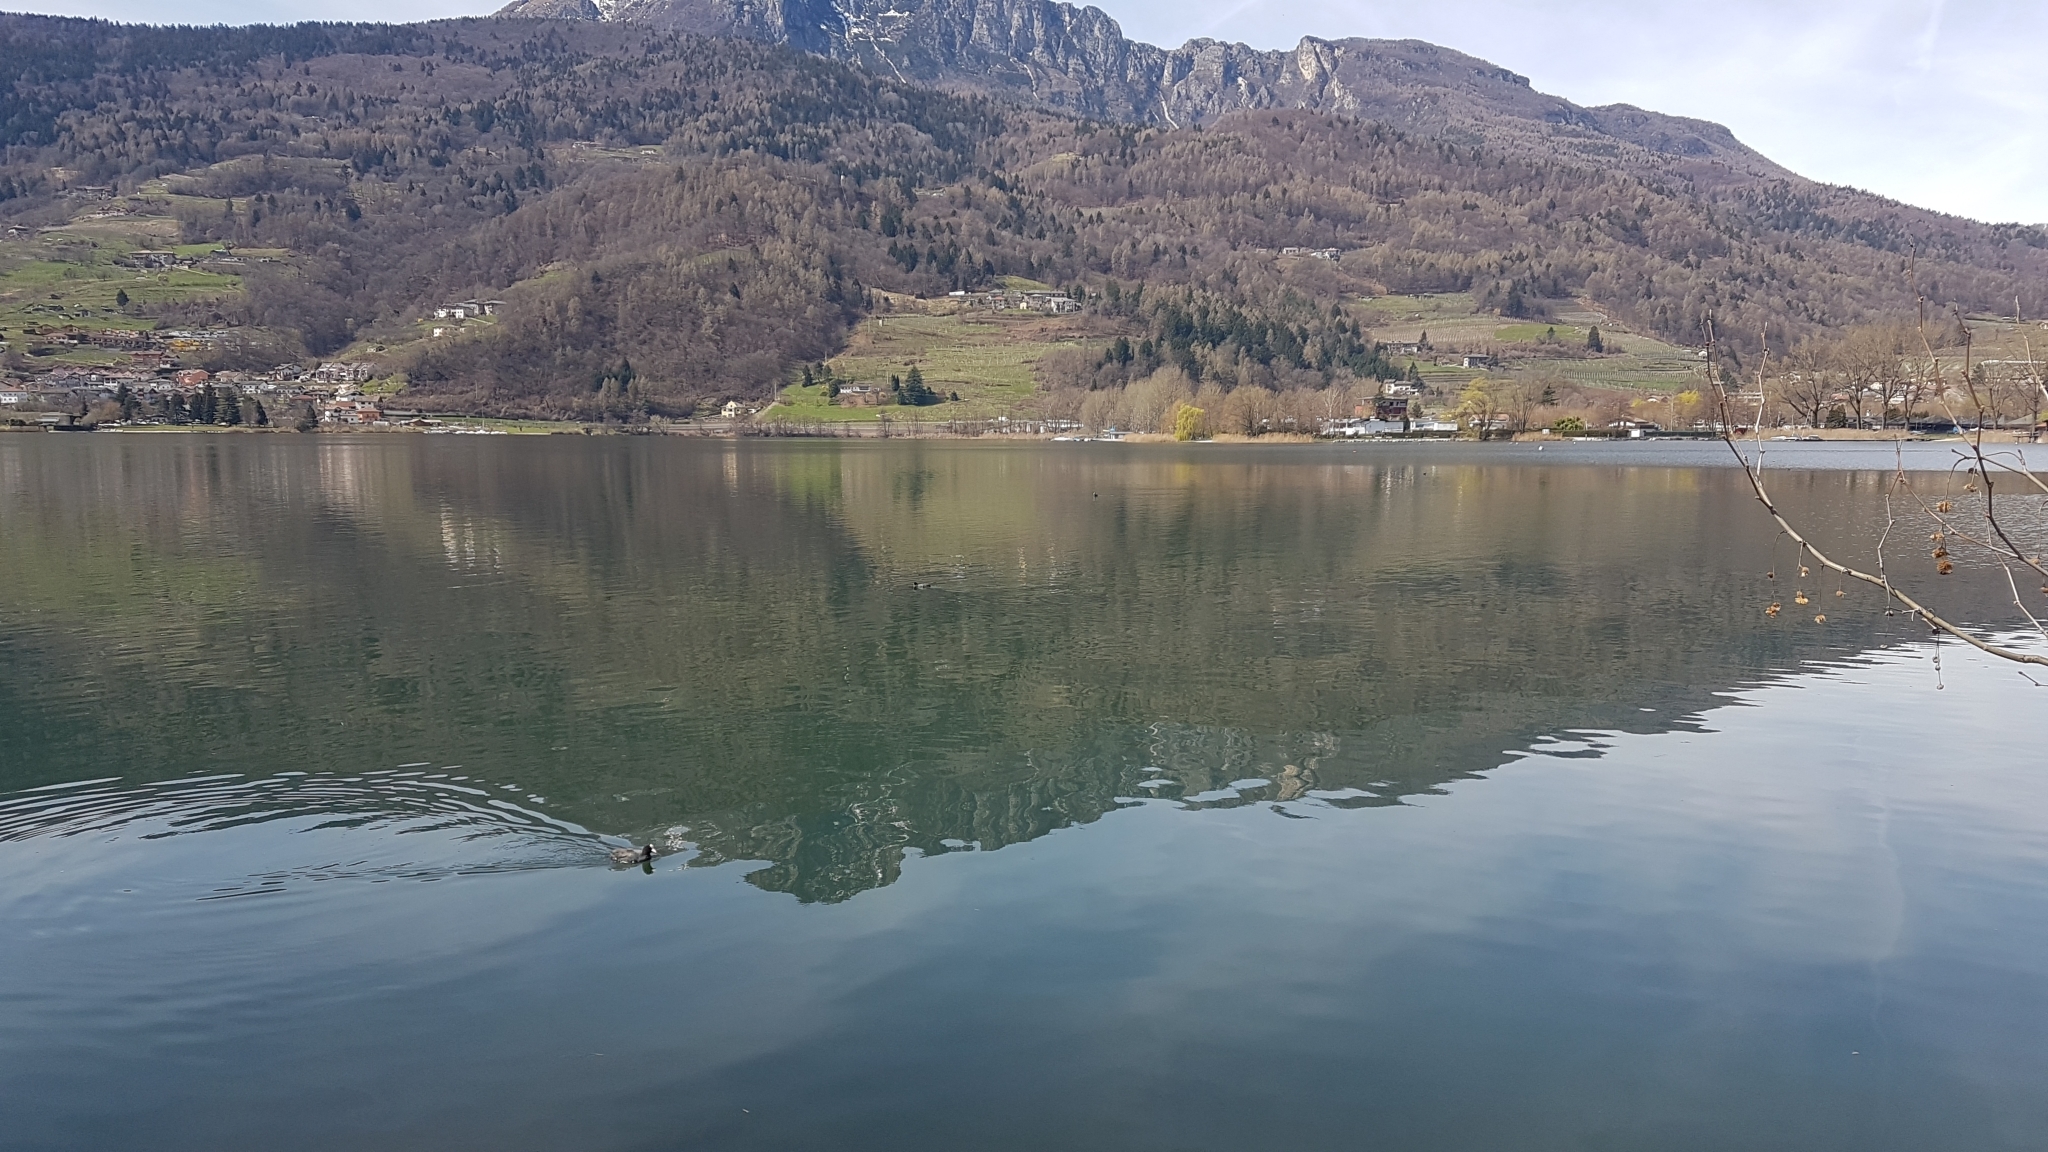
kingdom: Animalia
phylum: Chordata
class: Aves
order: Gruiformes
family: Rallidae
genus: Fulica
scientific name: Fulica atra
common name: Eurasian coot
